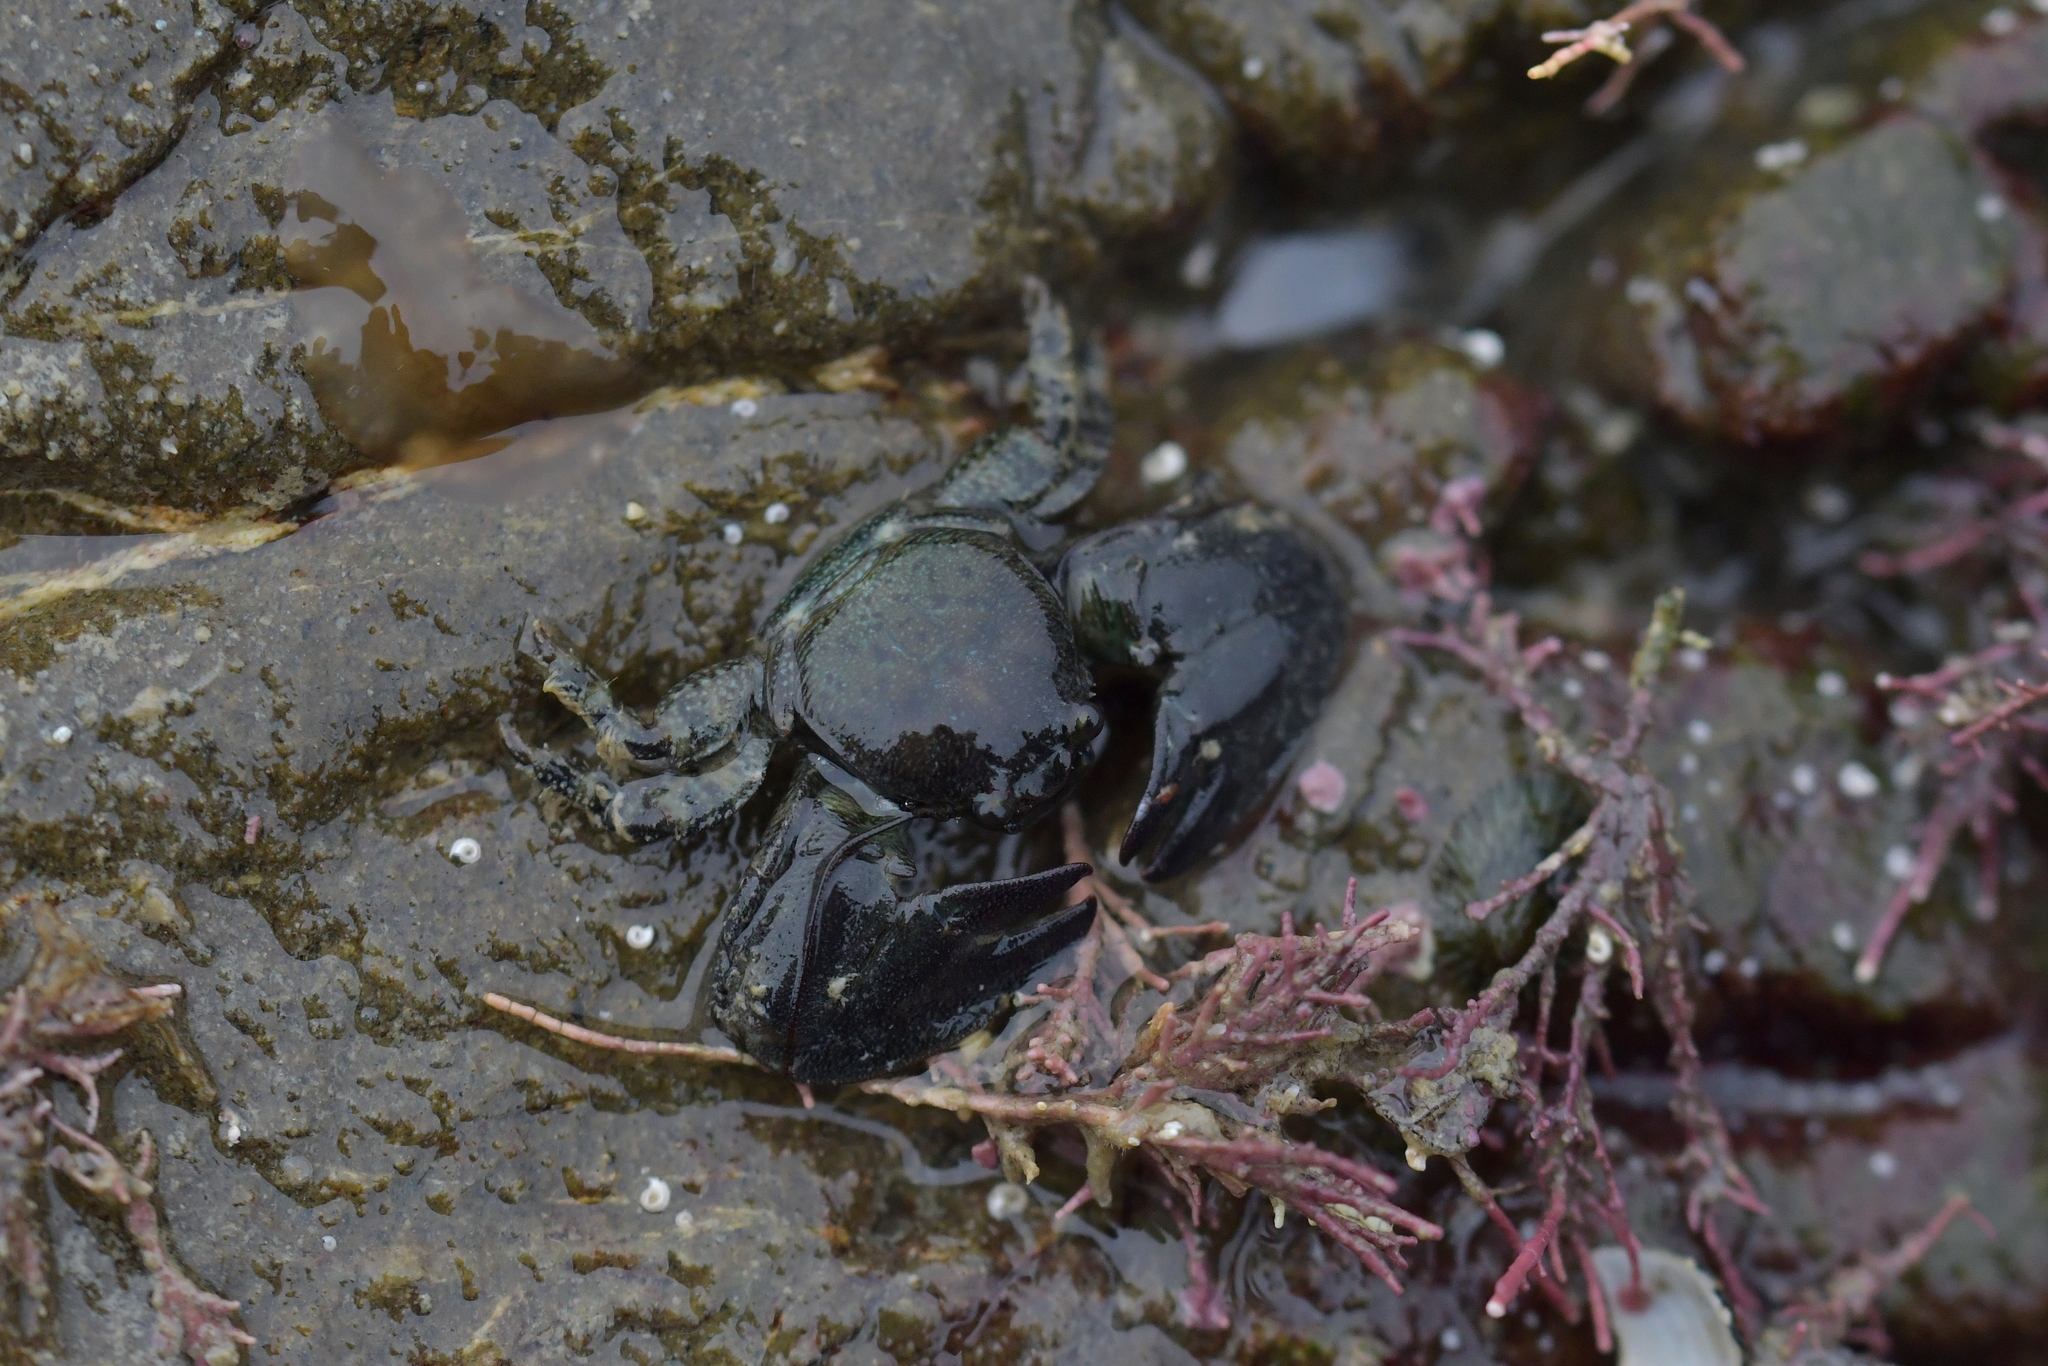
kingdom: Animalia
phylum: Arthropoda
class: Malacostraca
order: Decapoda
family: Porcellanidae
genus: Petrolisthes
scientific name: Petrolisthes elongatus
